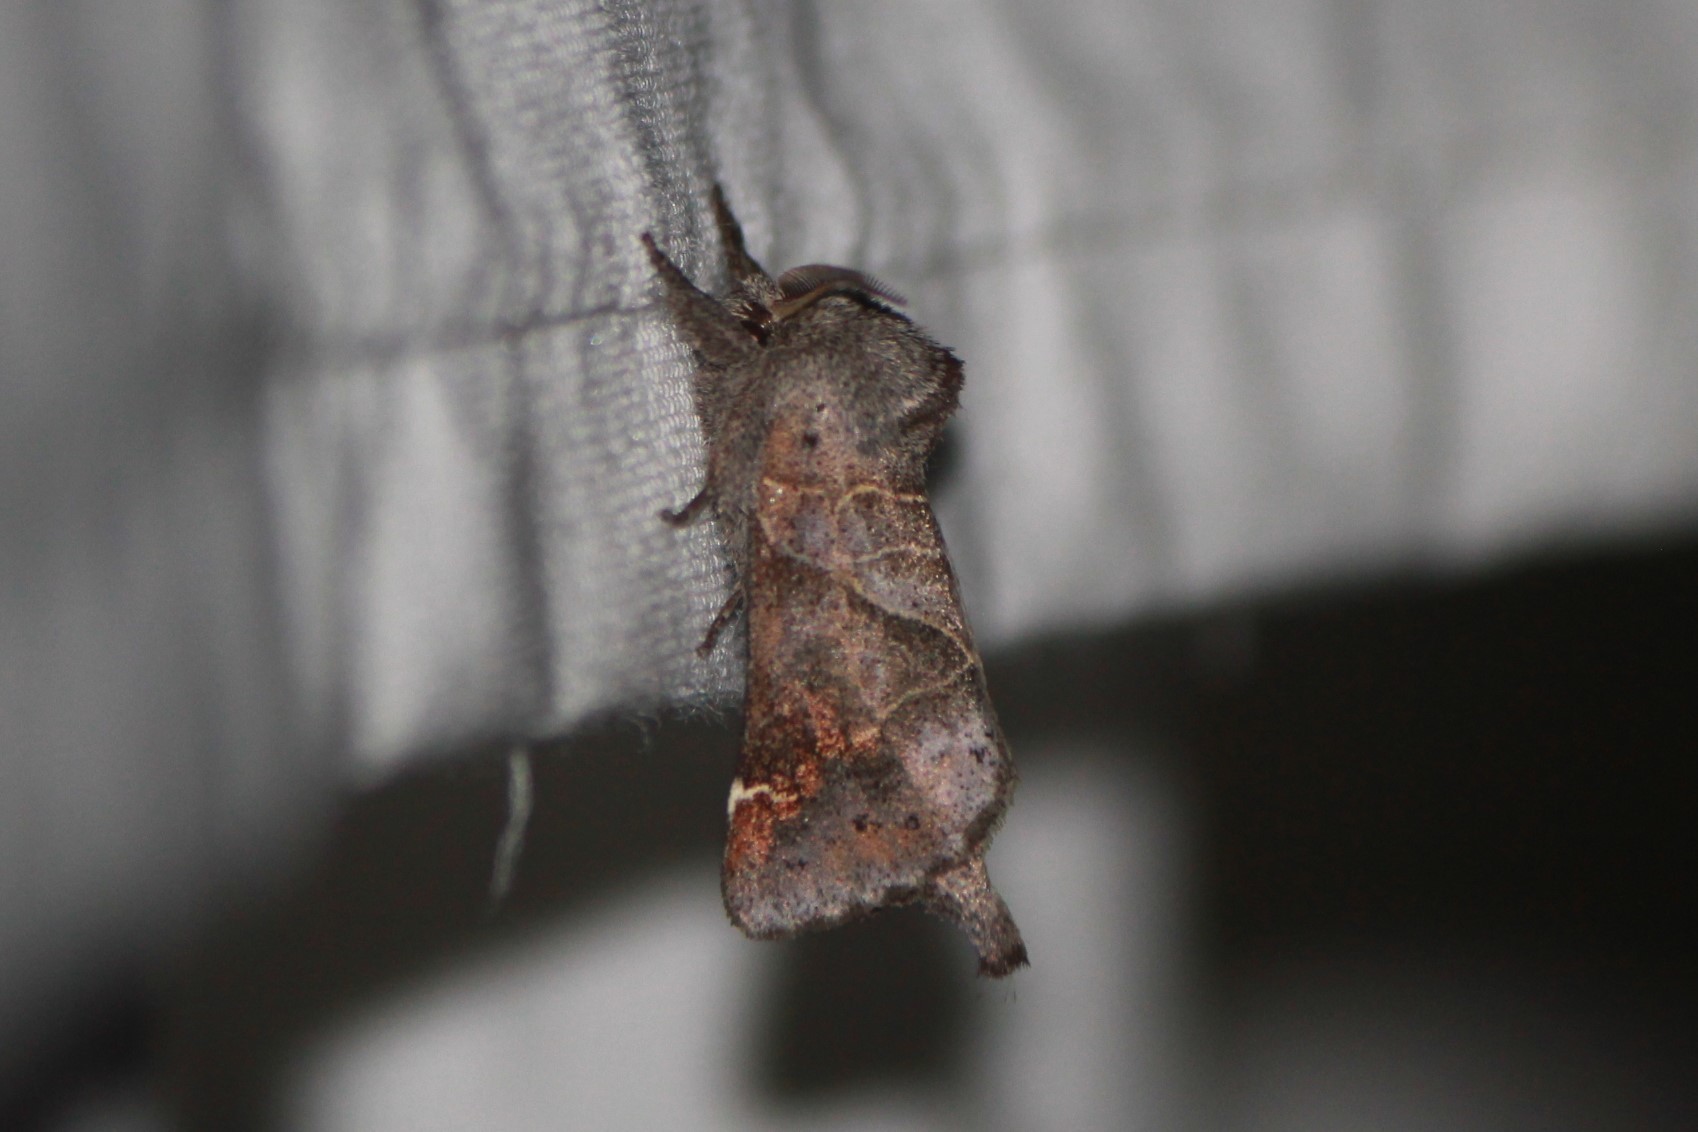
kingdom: Animalia
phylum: Arthropoda
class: Insecta
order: Lepidoptera
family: Notodontidae
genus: Clostera
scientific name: Clostera apicalis
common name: Apical prominent
